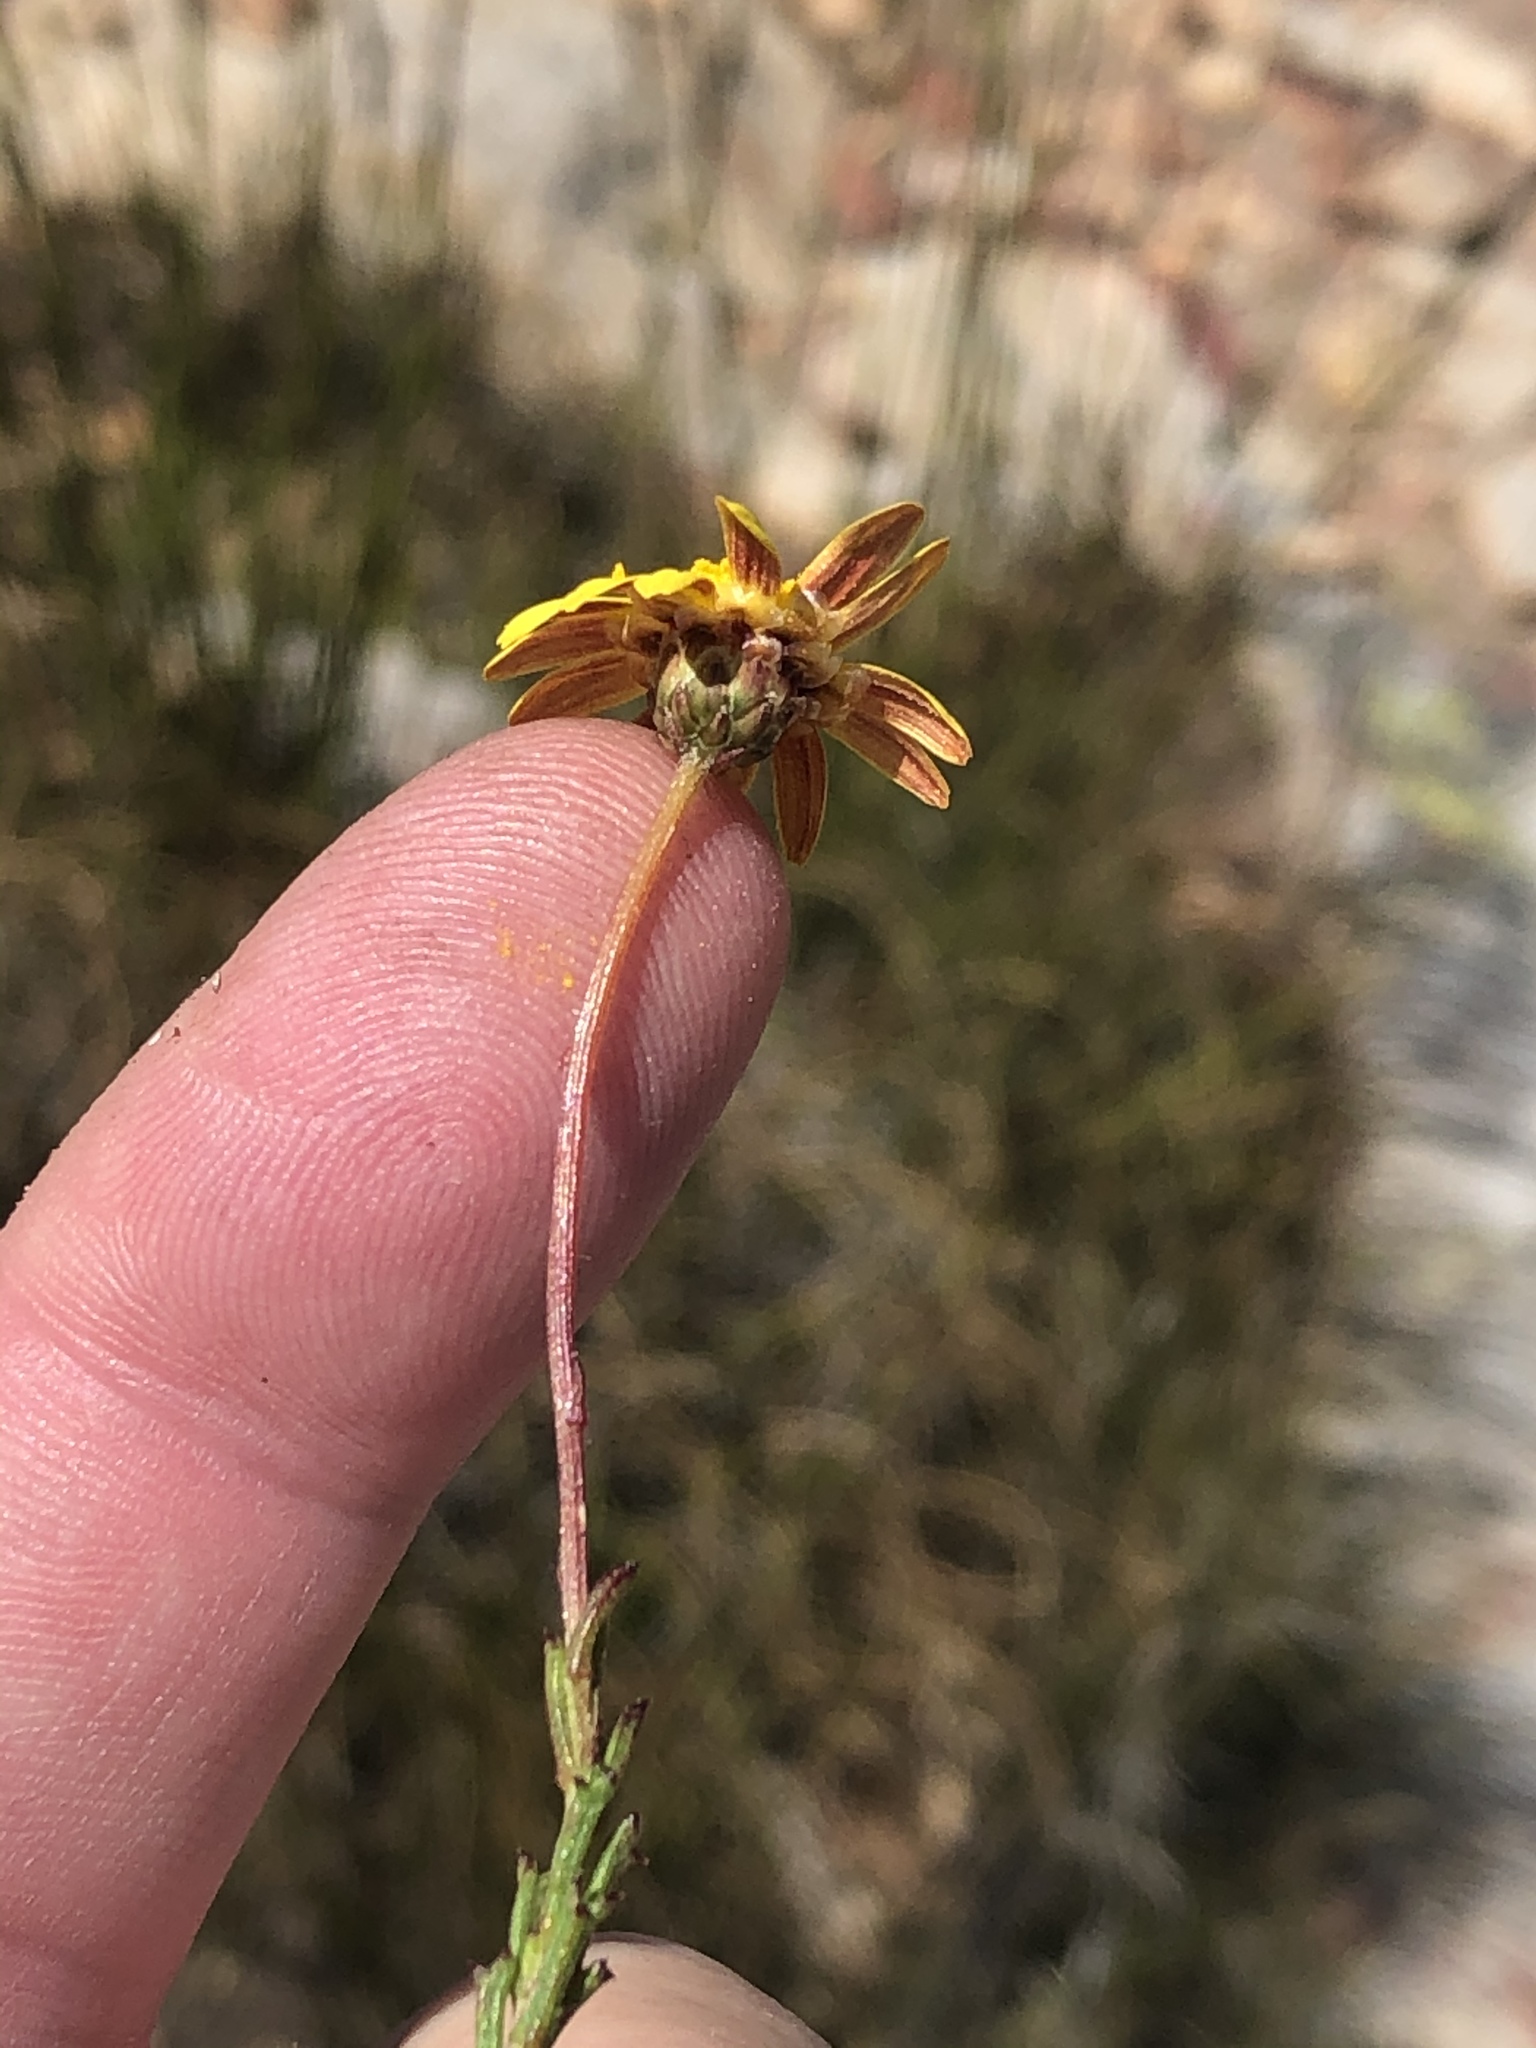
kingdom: Plantae
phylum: Tracheophyta
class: Magnoliopsida
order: Asterales
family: Asteraceae
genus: Ursinia
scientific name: Ursinia heterodonta
